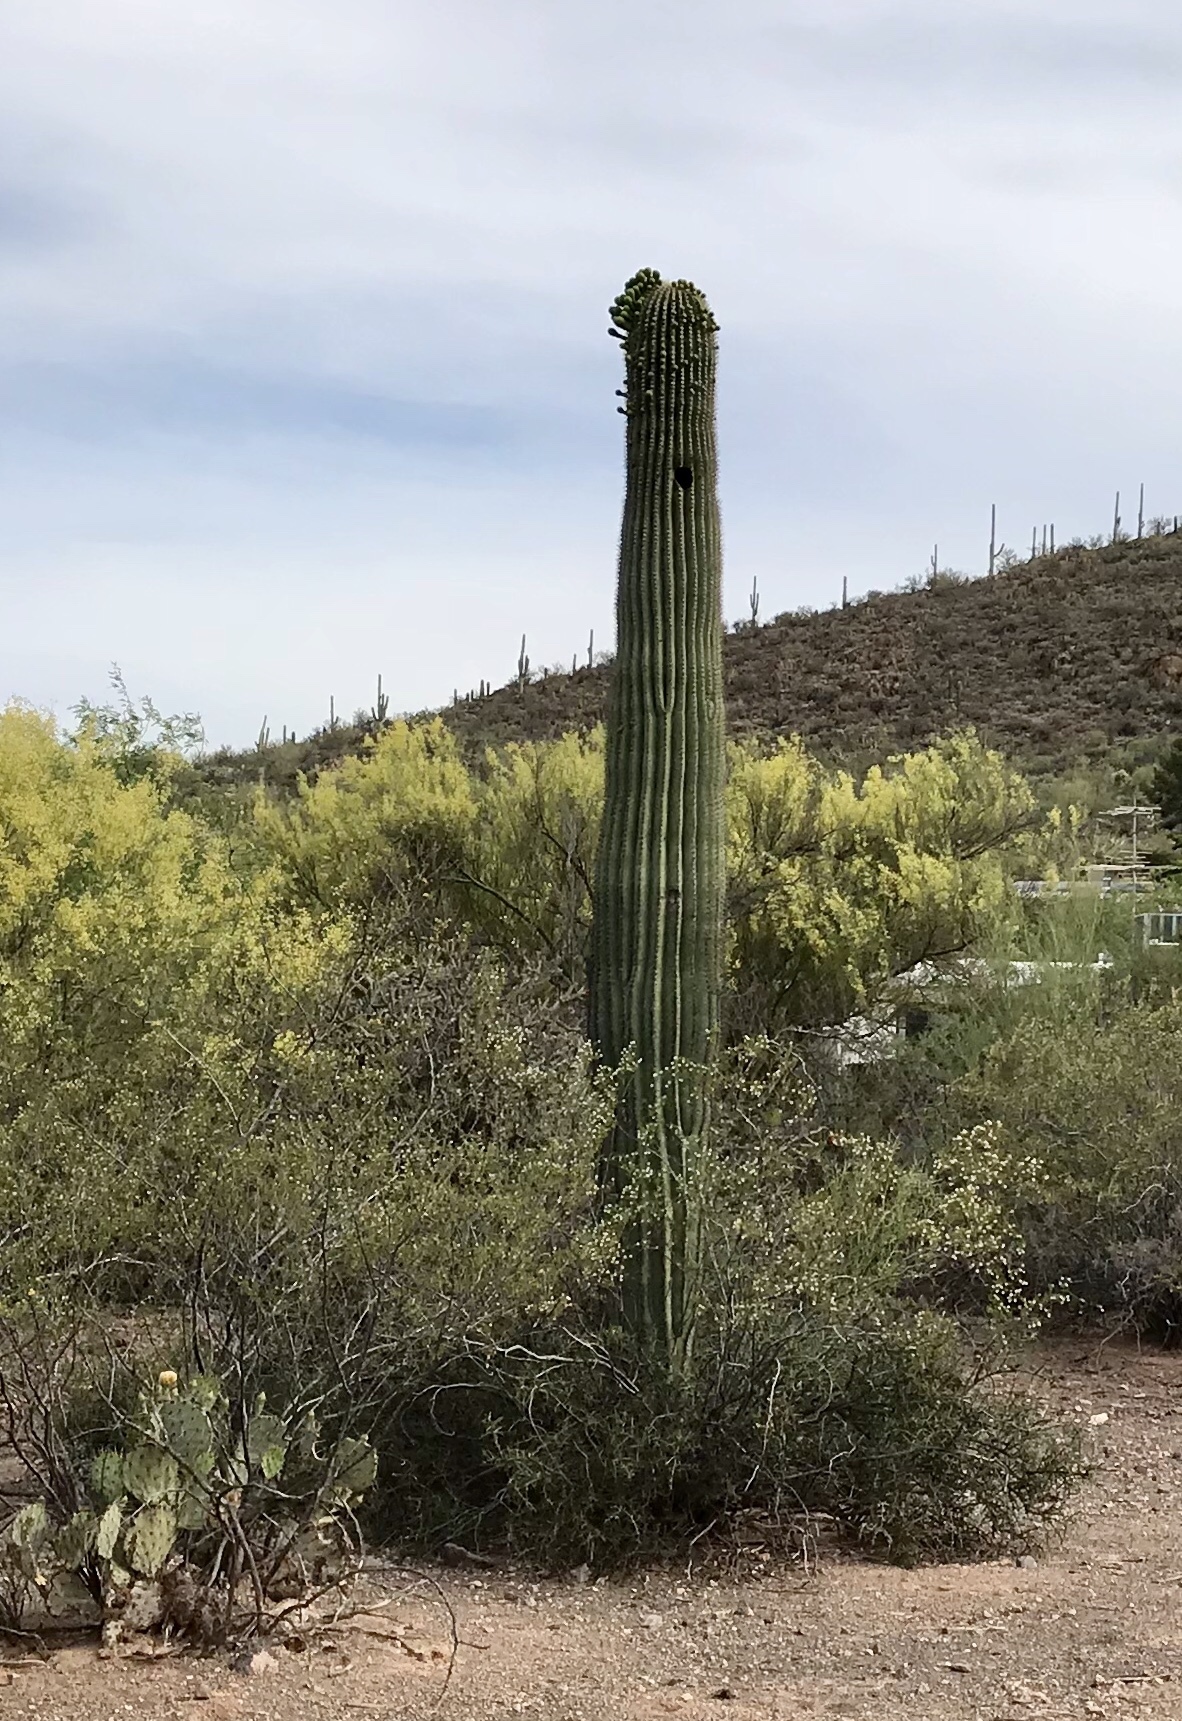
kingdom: Plantae
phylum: Tracheophyta
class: Magnoliopsida
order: Caryophyllales
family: Cactaceae
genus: Carnegiea
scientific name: Carnegiea gigantea
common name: Saguaro
